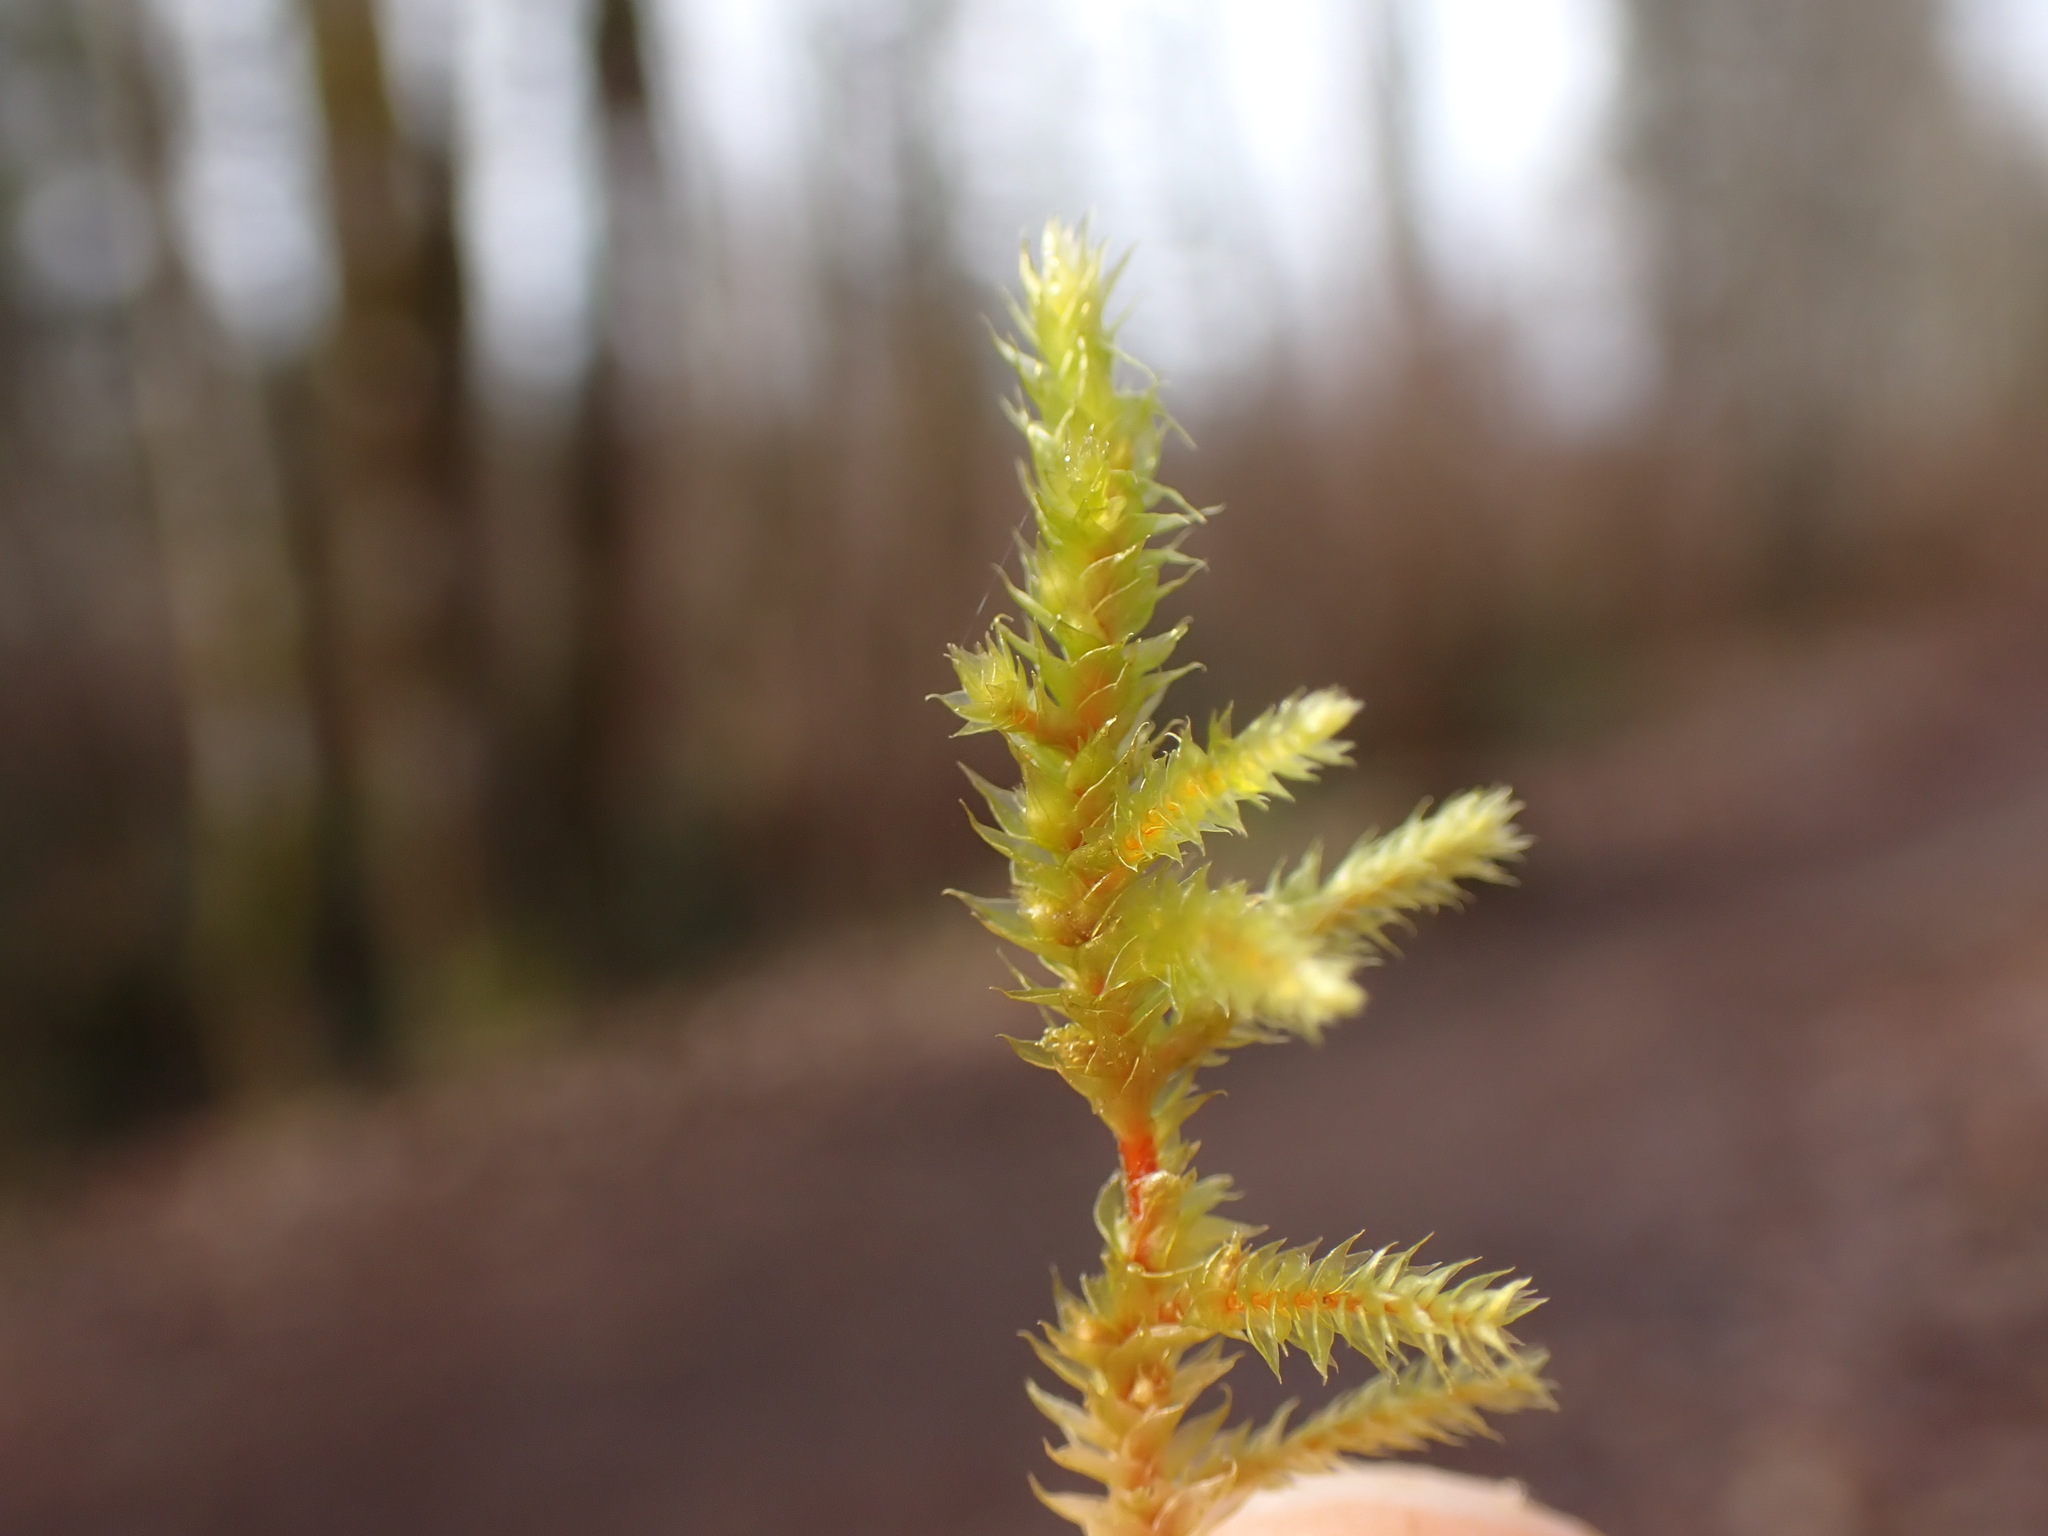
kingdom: Plantae
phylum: Bryophyta
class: Bryopsida
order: Hypnales
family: Antitrichiaceae
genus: Antitrichia
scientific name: Antitrichia curtipendula
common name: Pendulous wing-moss
